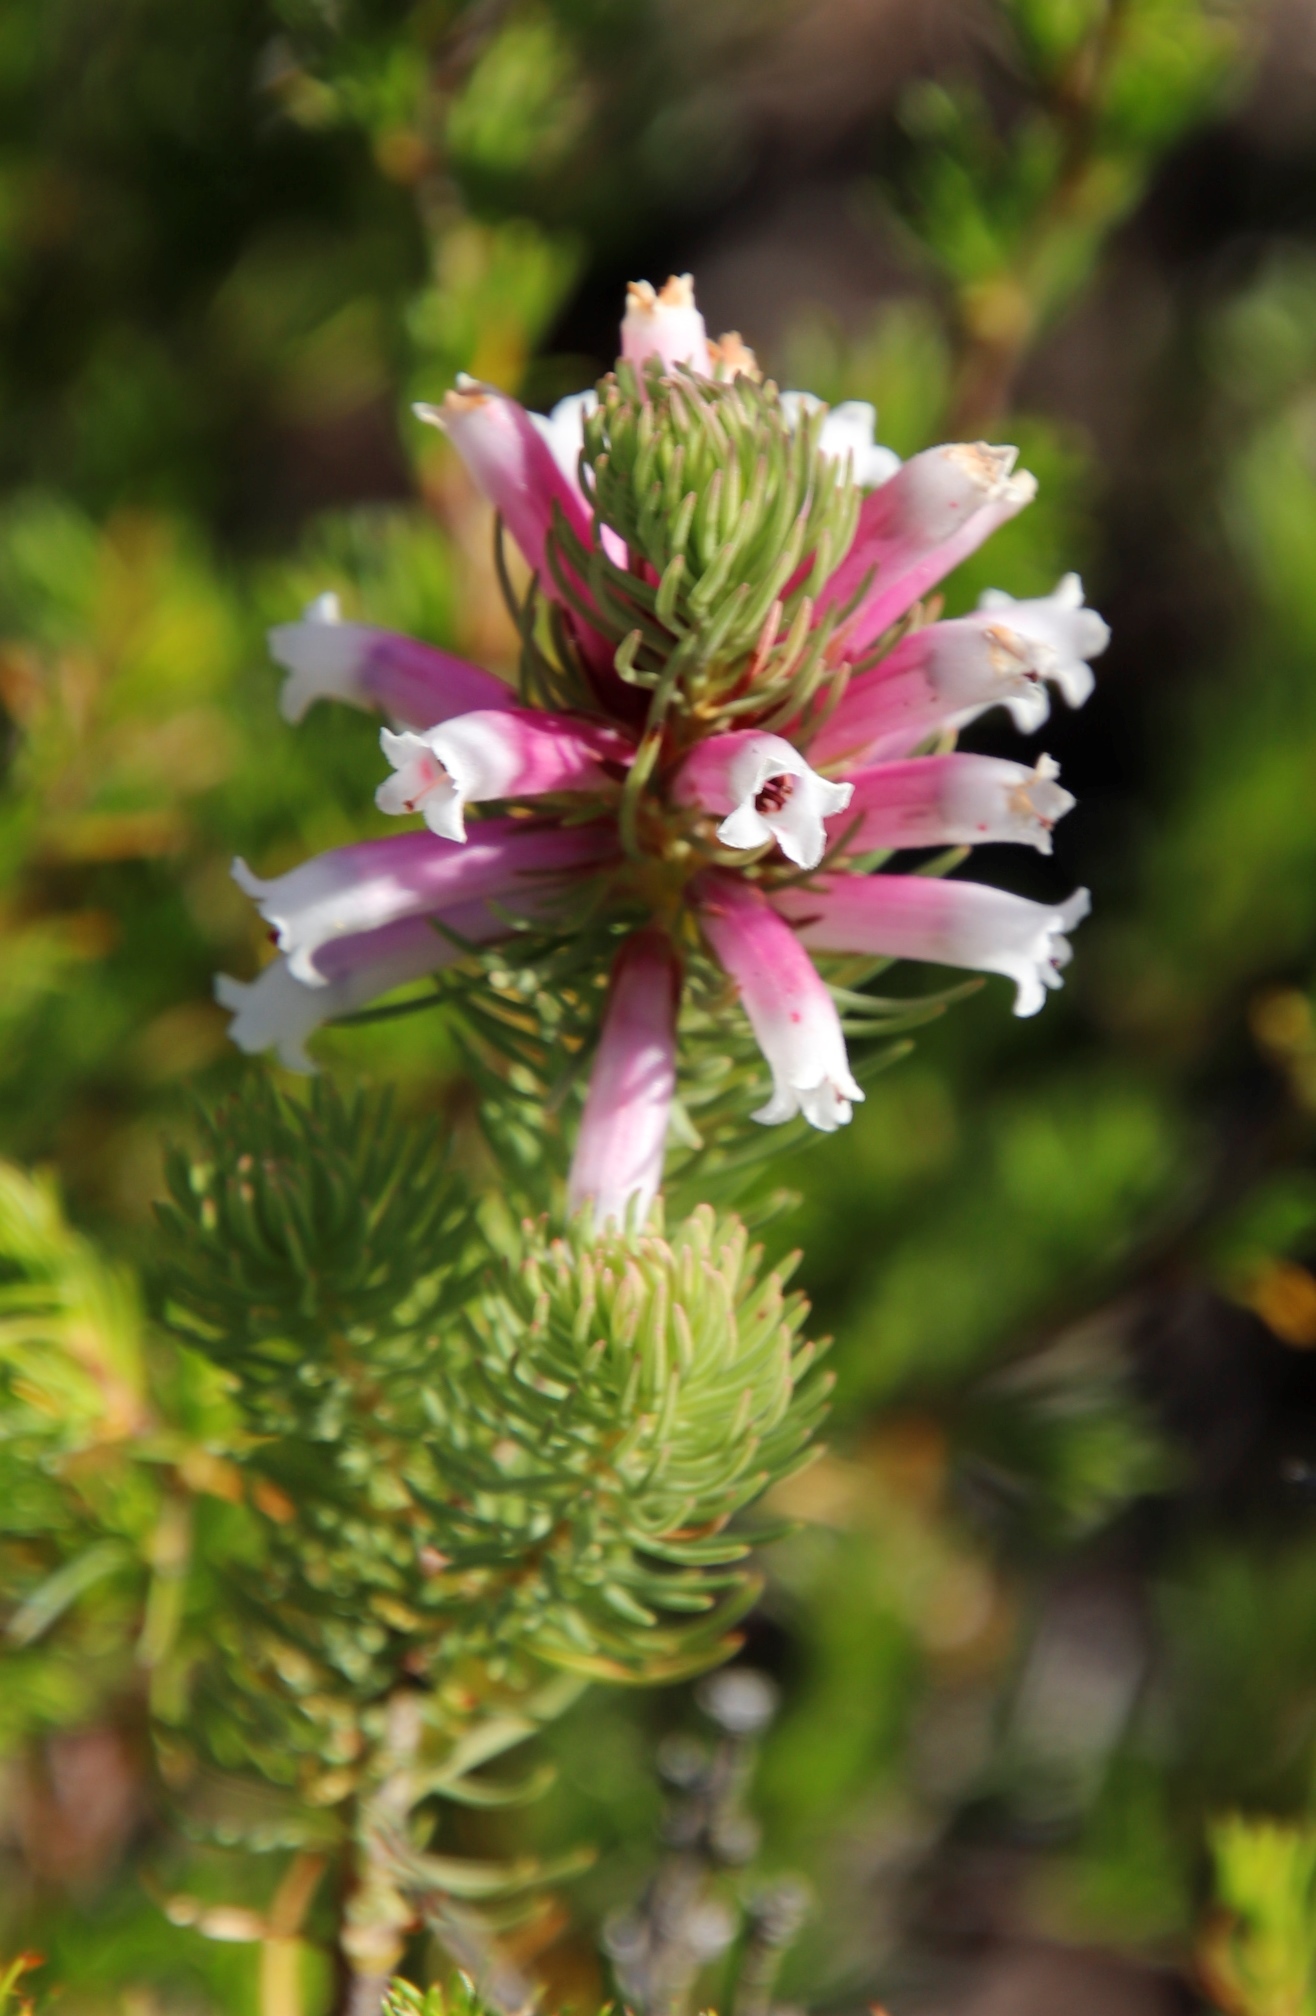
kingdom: Plantae
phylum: Tracheophyta
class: Magnoliopsida
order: Ericales
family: Ericaceae
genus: Erica
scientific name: Erica viscaria
